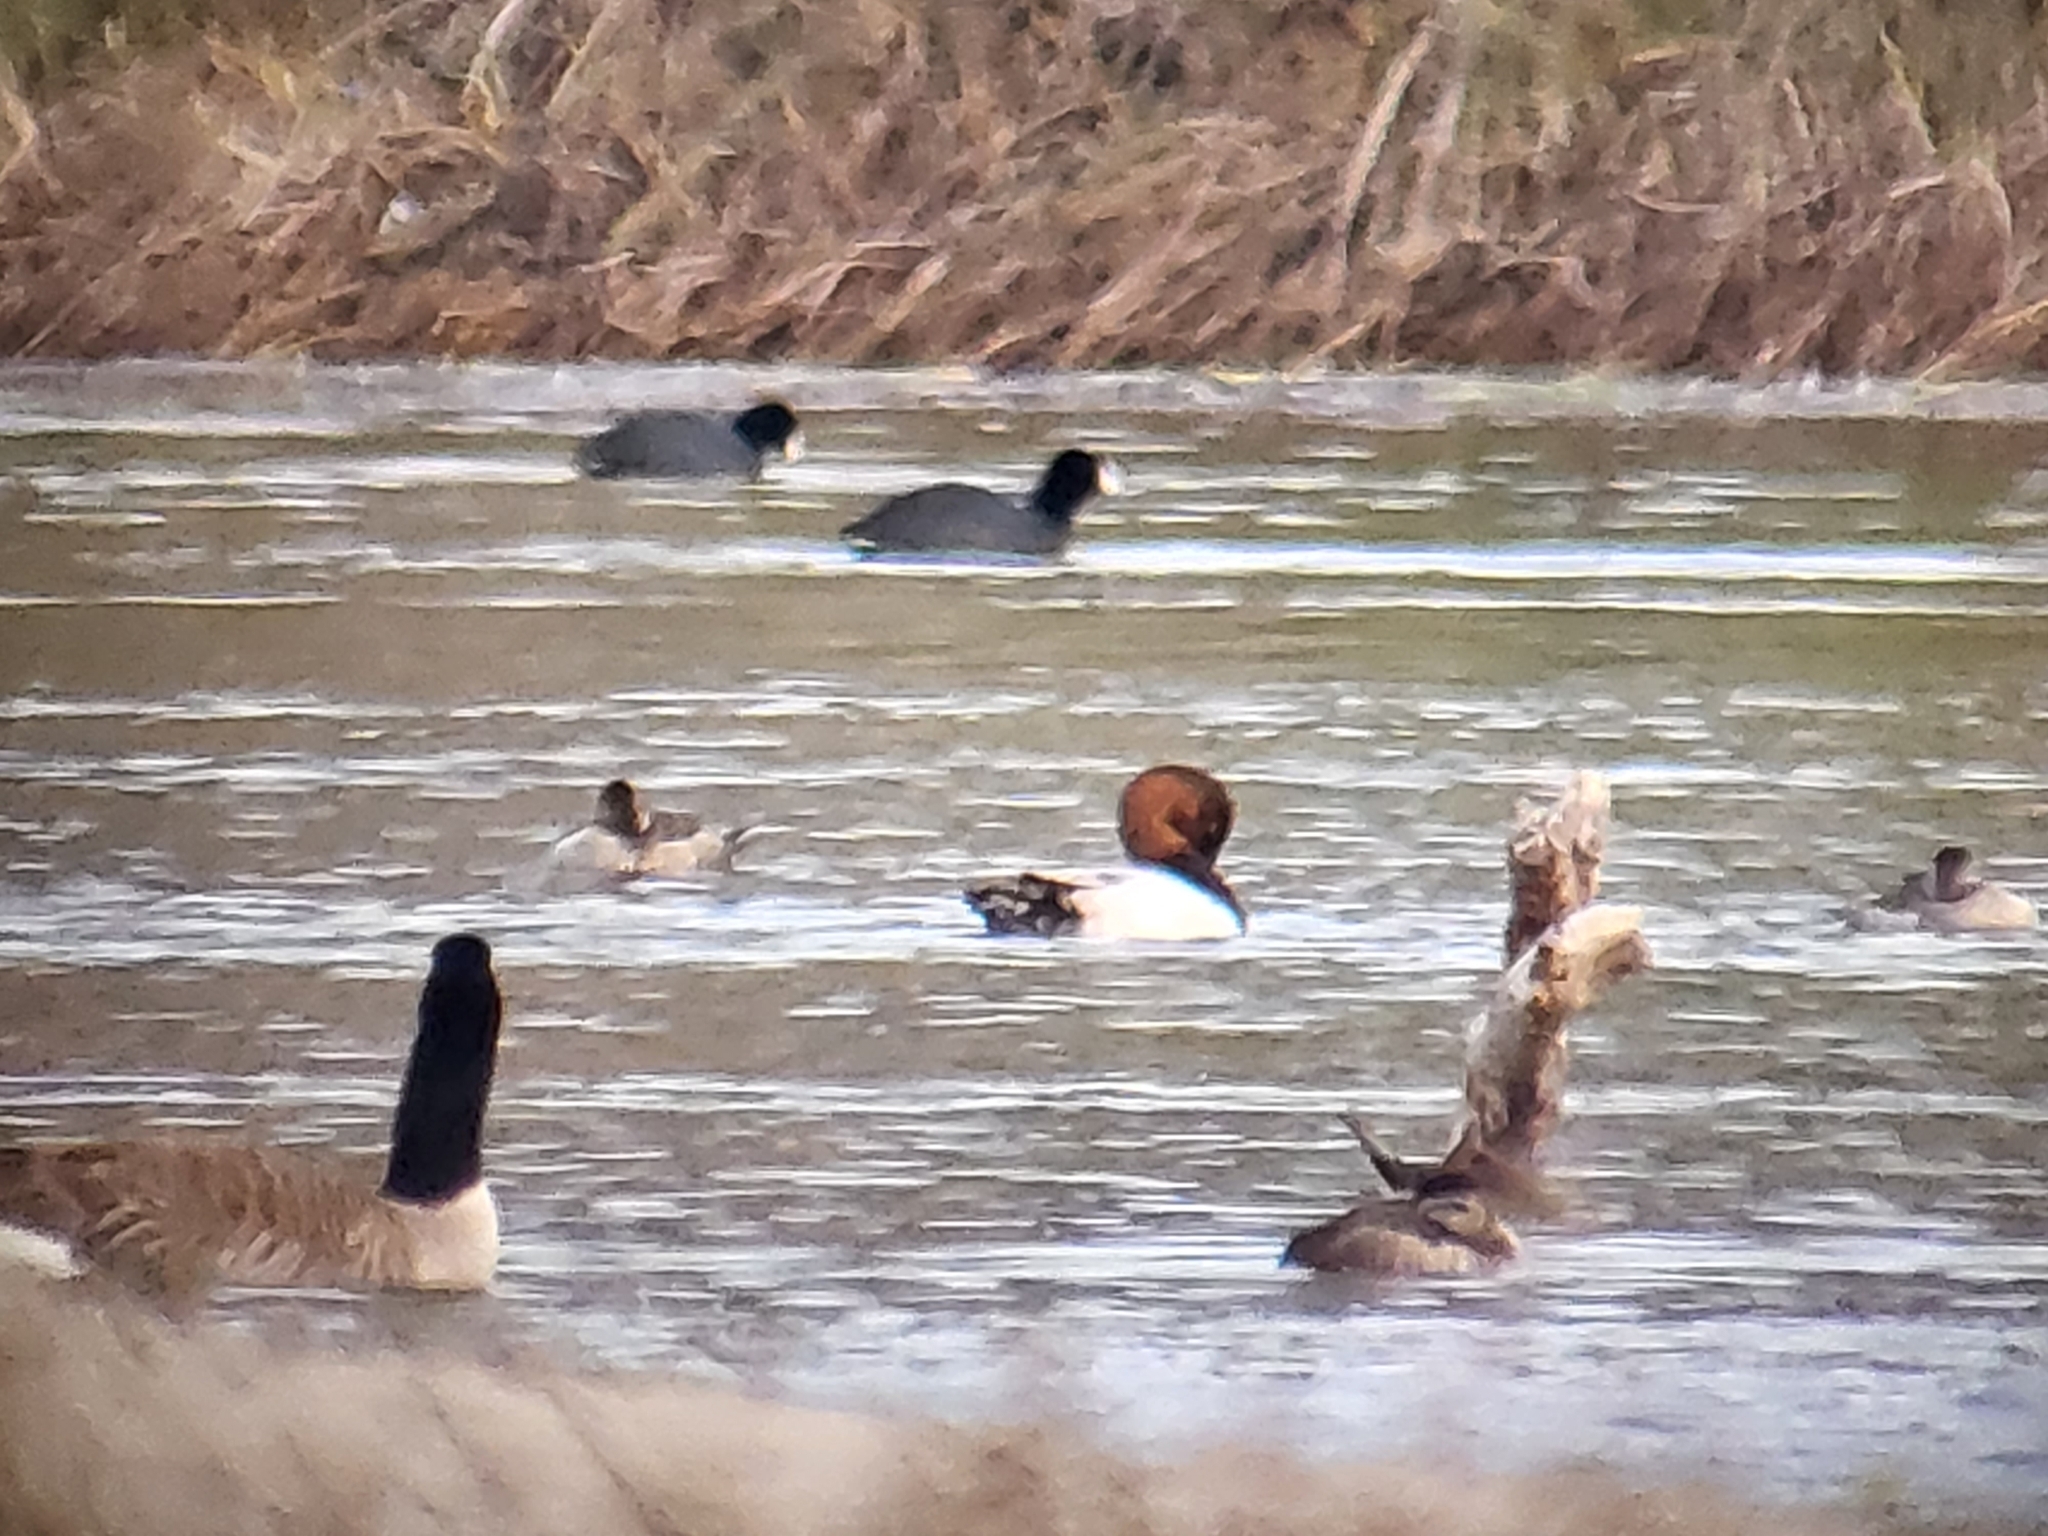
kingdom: Animalia
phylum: Chordata
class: Aves
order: Anseriformes
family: Anatidae
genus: Aythya
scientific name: Aythya valisineria
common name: Canvasback
